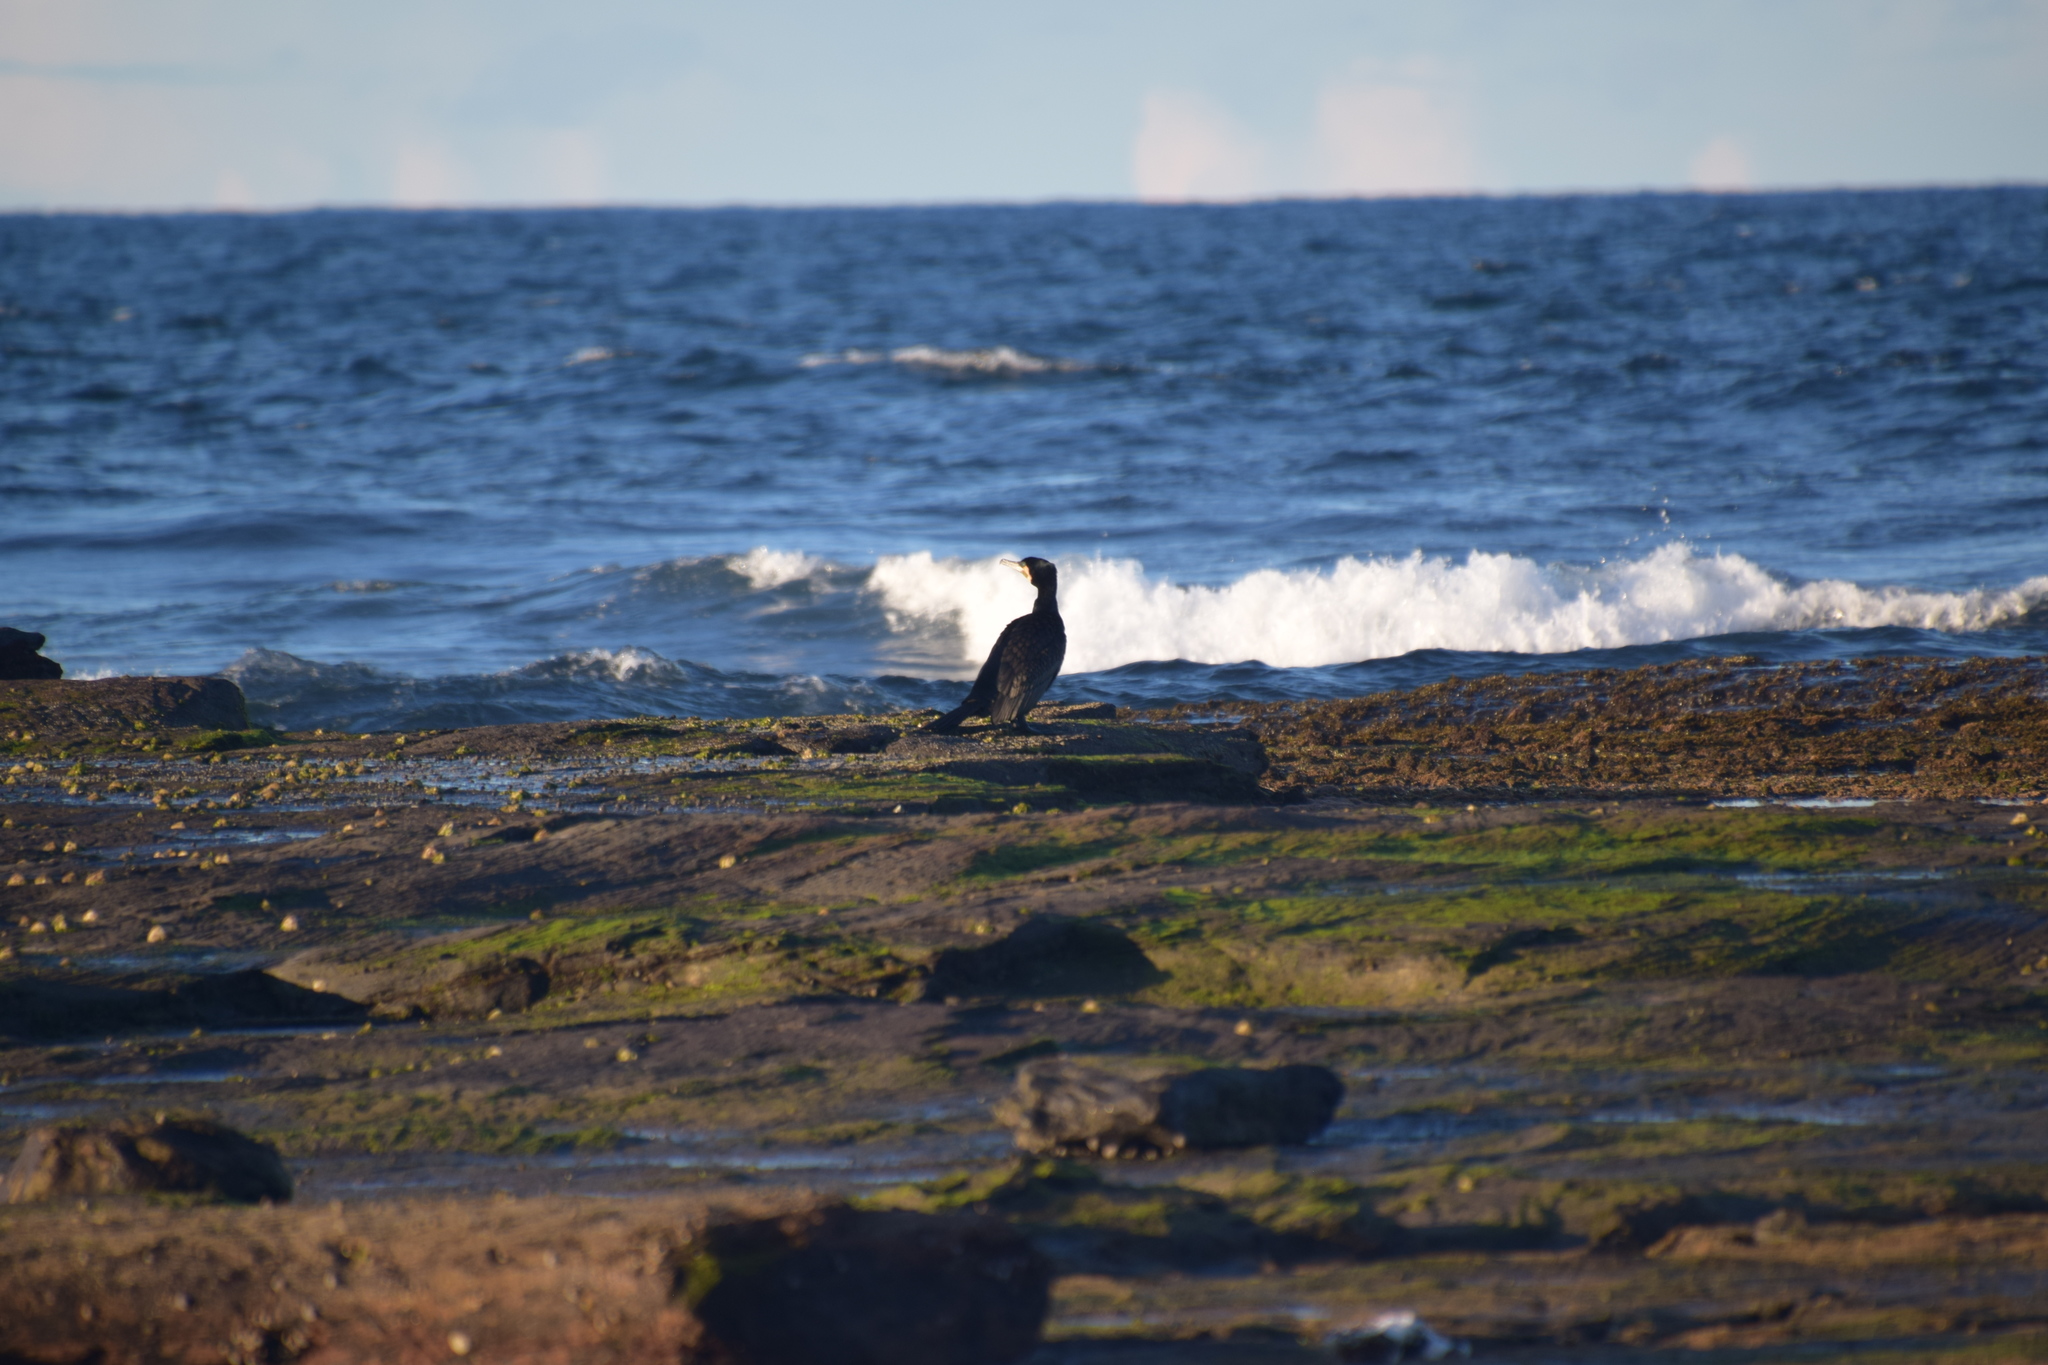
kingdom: Animalia
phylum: Chordata
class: Aves
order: Suliformes
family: Phalacrocoracidae
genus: Phalacrocorax
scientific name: Phalacrocorax carbo
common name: Great cormorant
